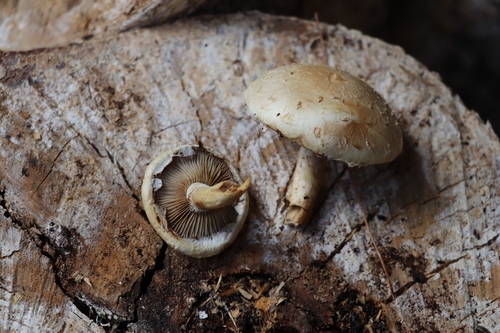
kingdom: Fungi
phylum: Basidiomycota
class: Agaricomycetes
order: Agaricales
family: Strophariaceae
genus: Pholiota
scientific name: Pholiota populnea
